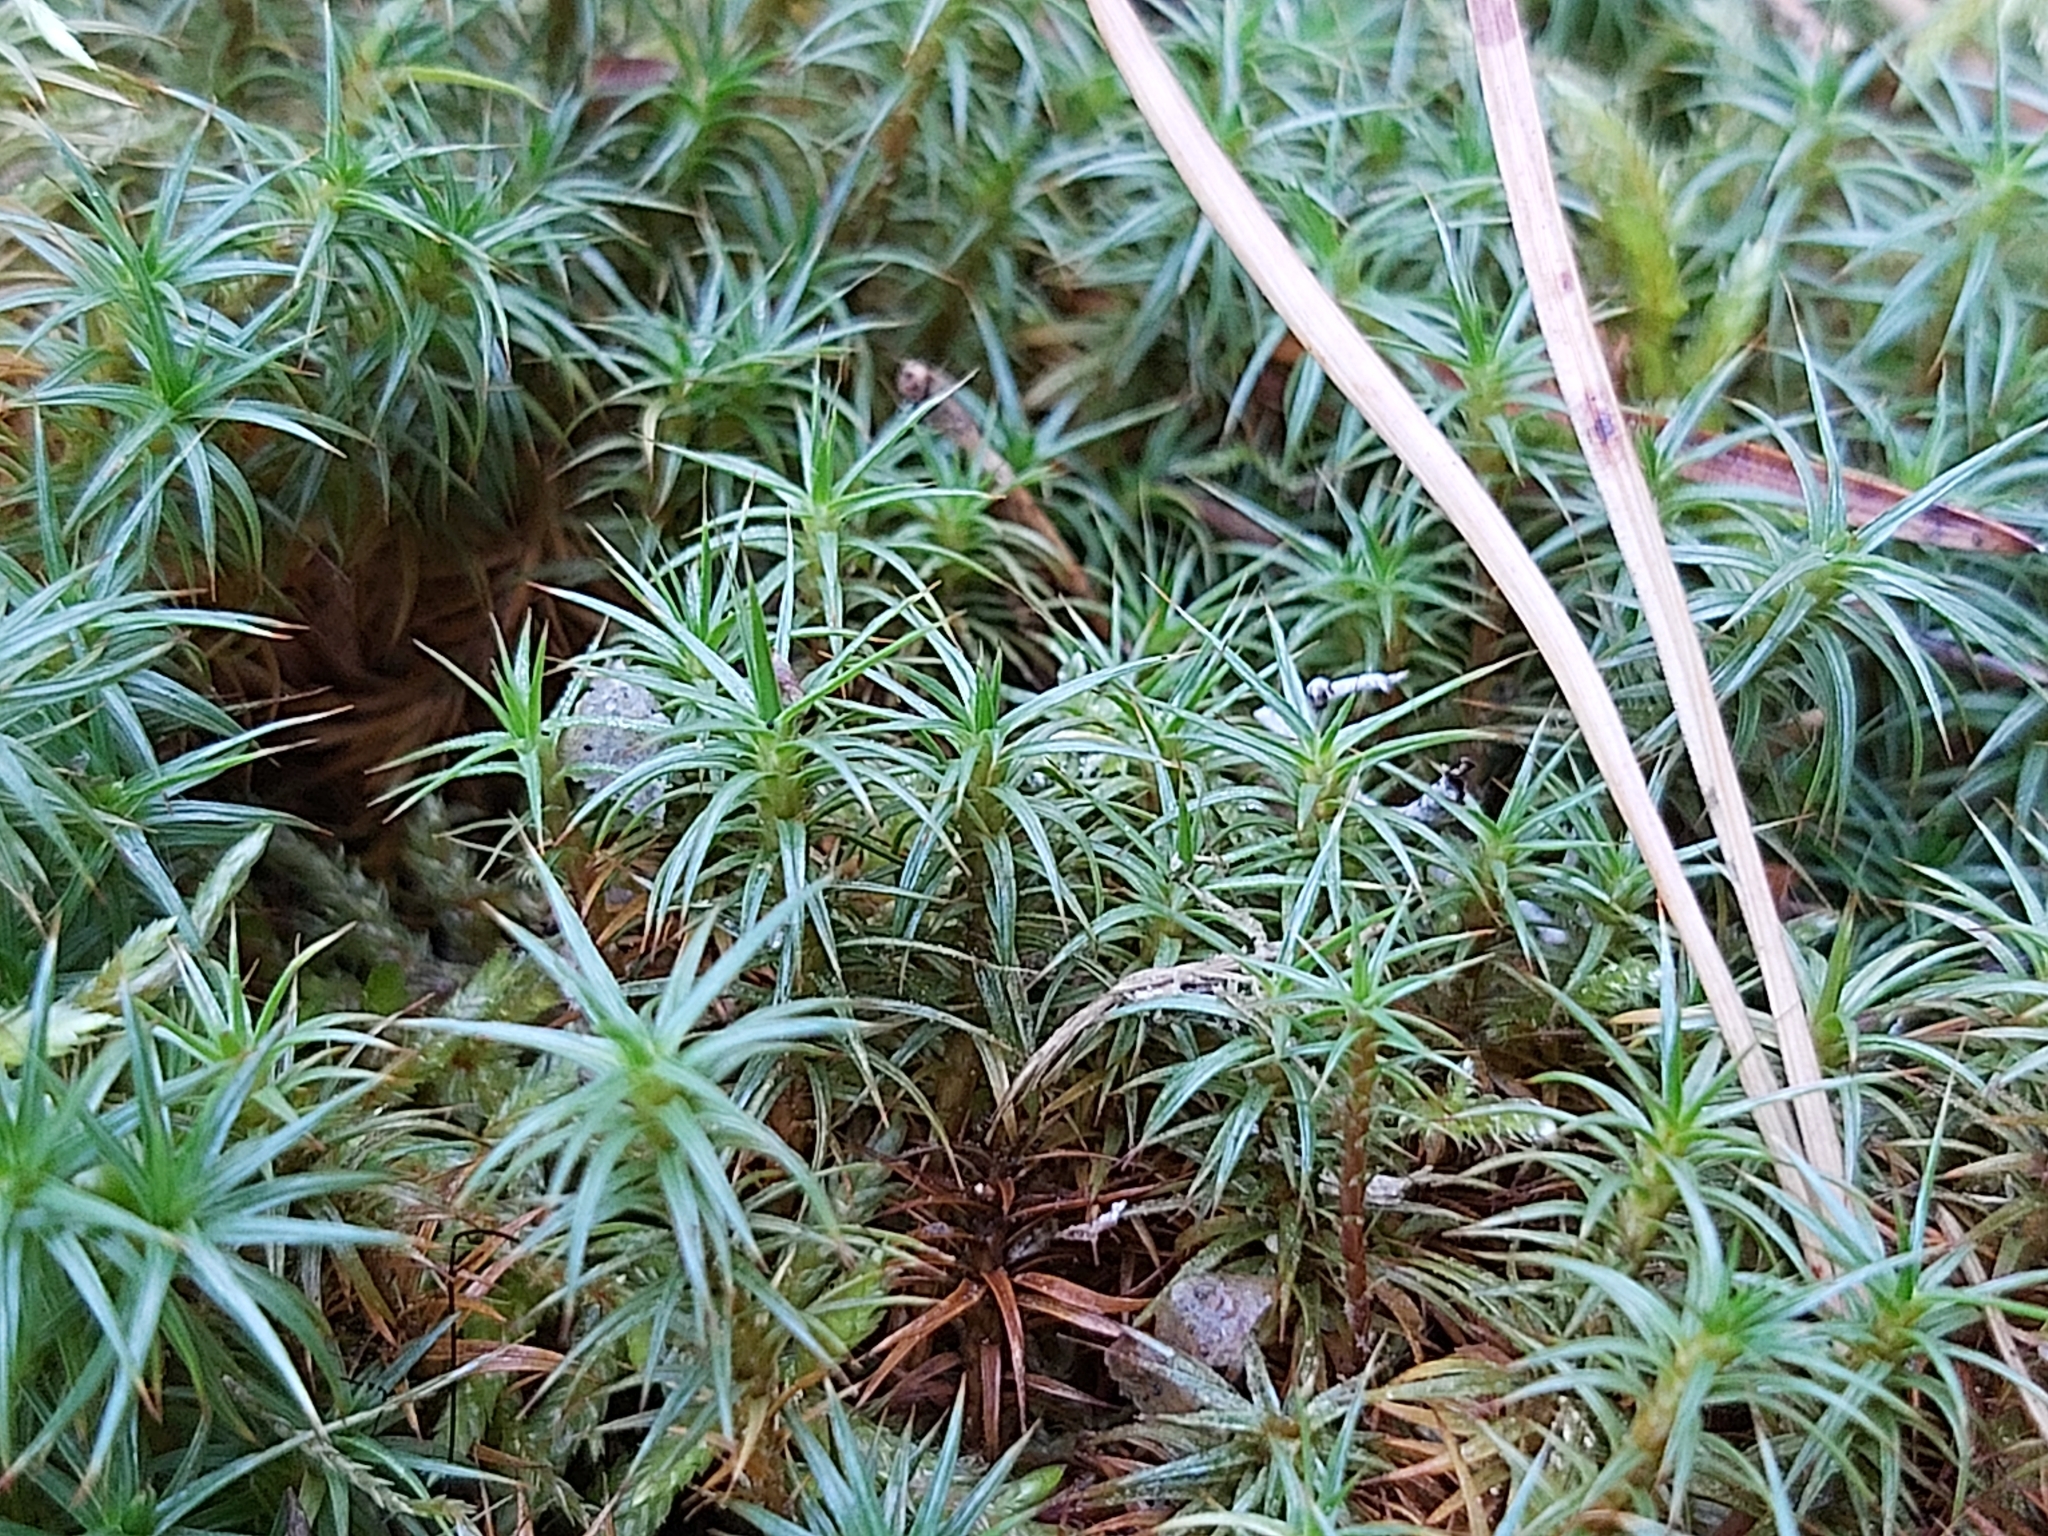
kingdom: Plantae
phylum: Bryophyta
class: Polytrichopsida
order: Polytrichales
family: Polytrichaceae
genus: Polytrichum
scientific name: Polytrichum juniperinum
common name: Juniper haircap moss
